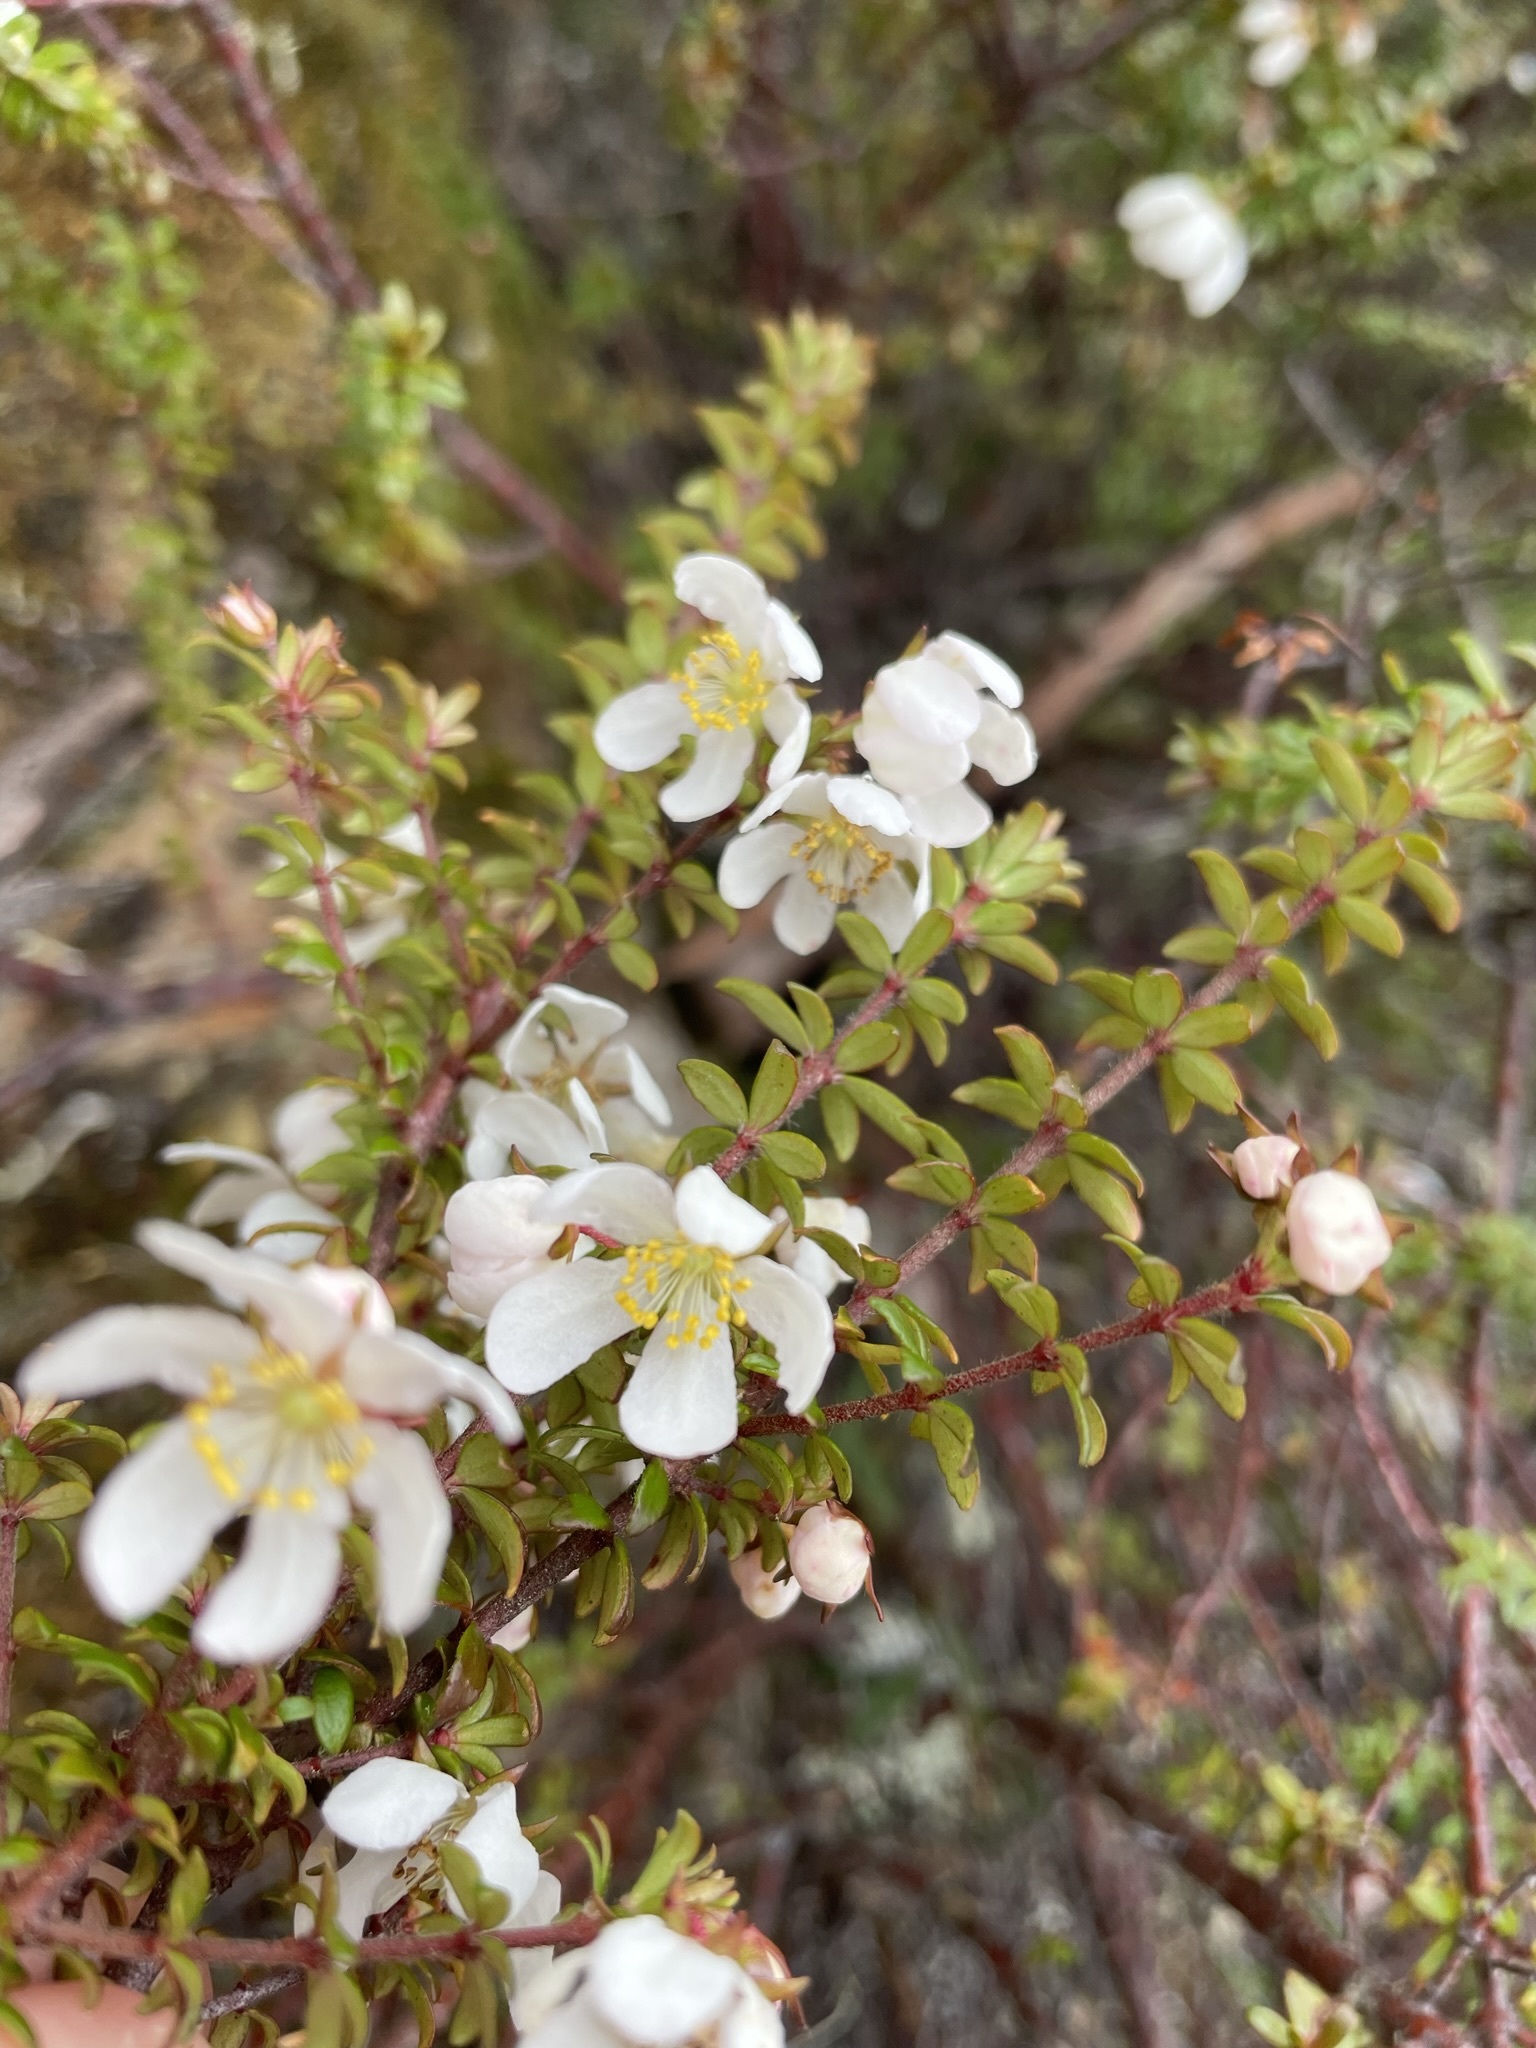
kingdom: Plantae
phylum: Tracheophyta
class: Magnoliopsida
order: Oxalidales
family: Cunoniaceae
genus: Bauera
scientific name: Bauera rubioides
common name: River-rose
